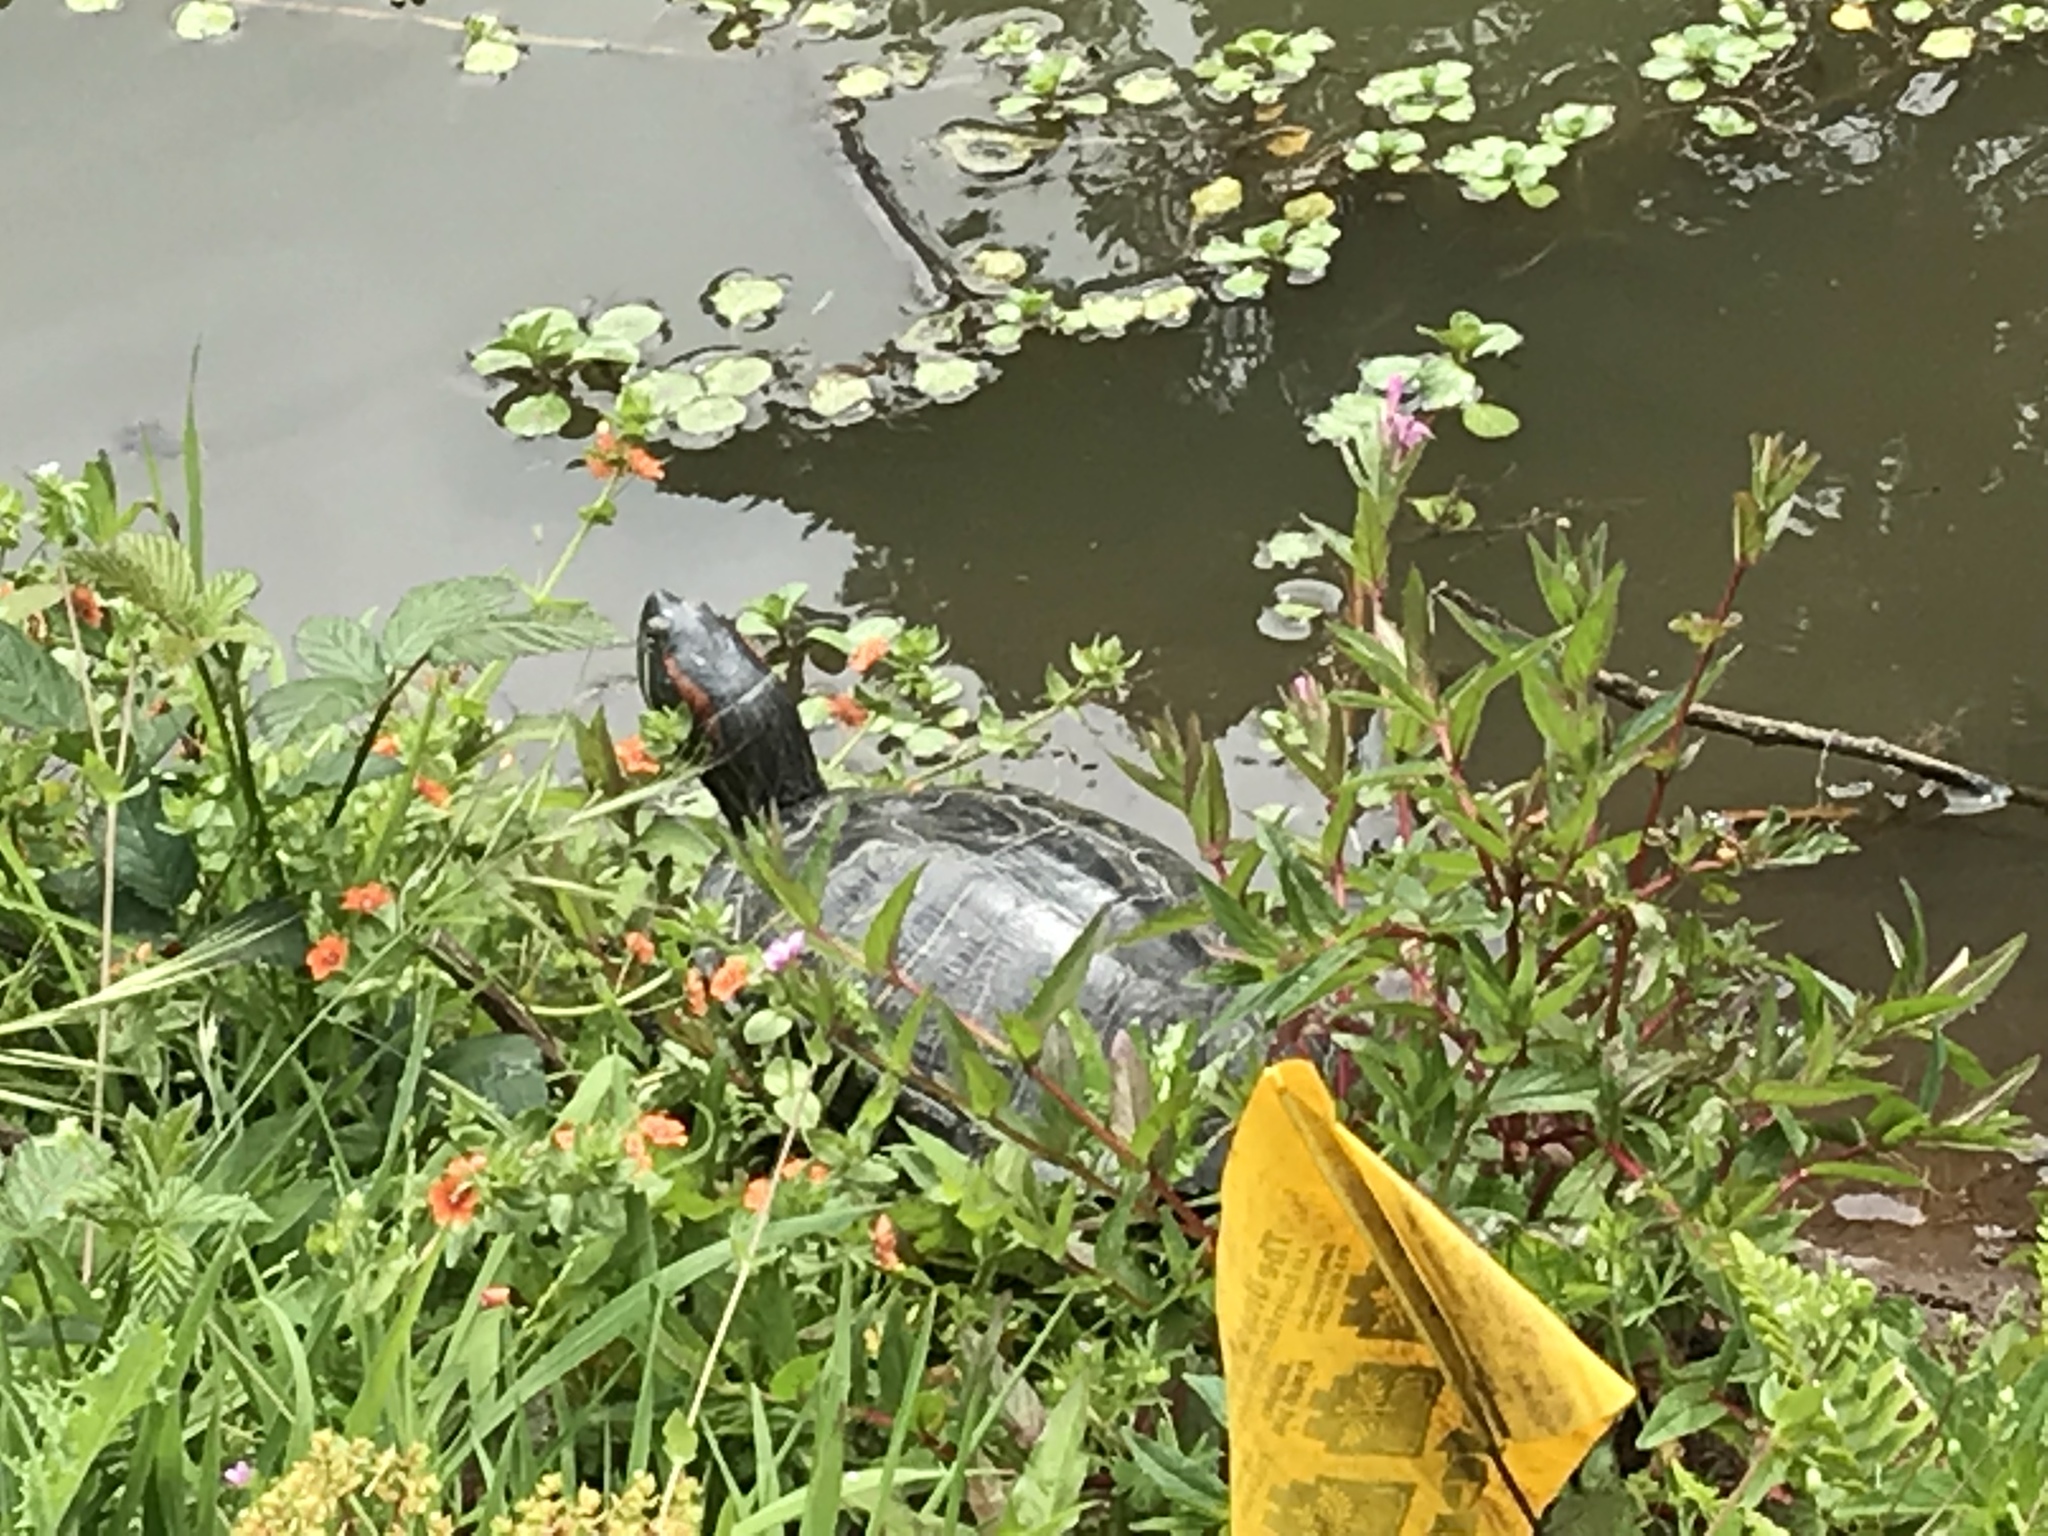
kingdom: Animalia
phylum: Chordata
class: Testudines
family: Emydidae
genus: Trachemys
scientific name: Trachemys scripta
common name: Slider
